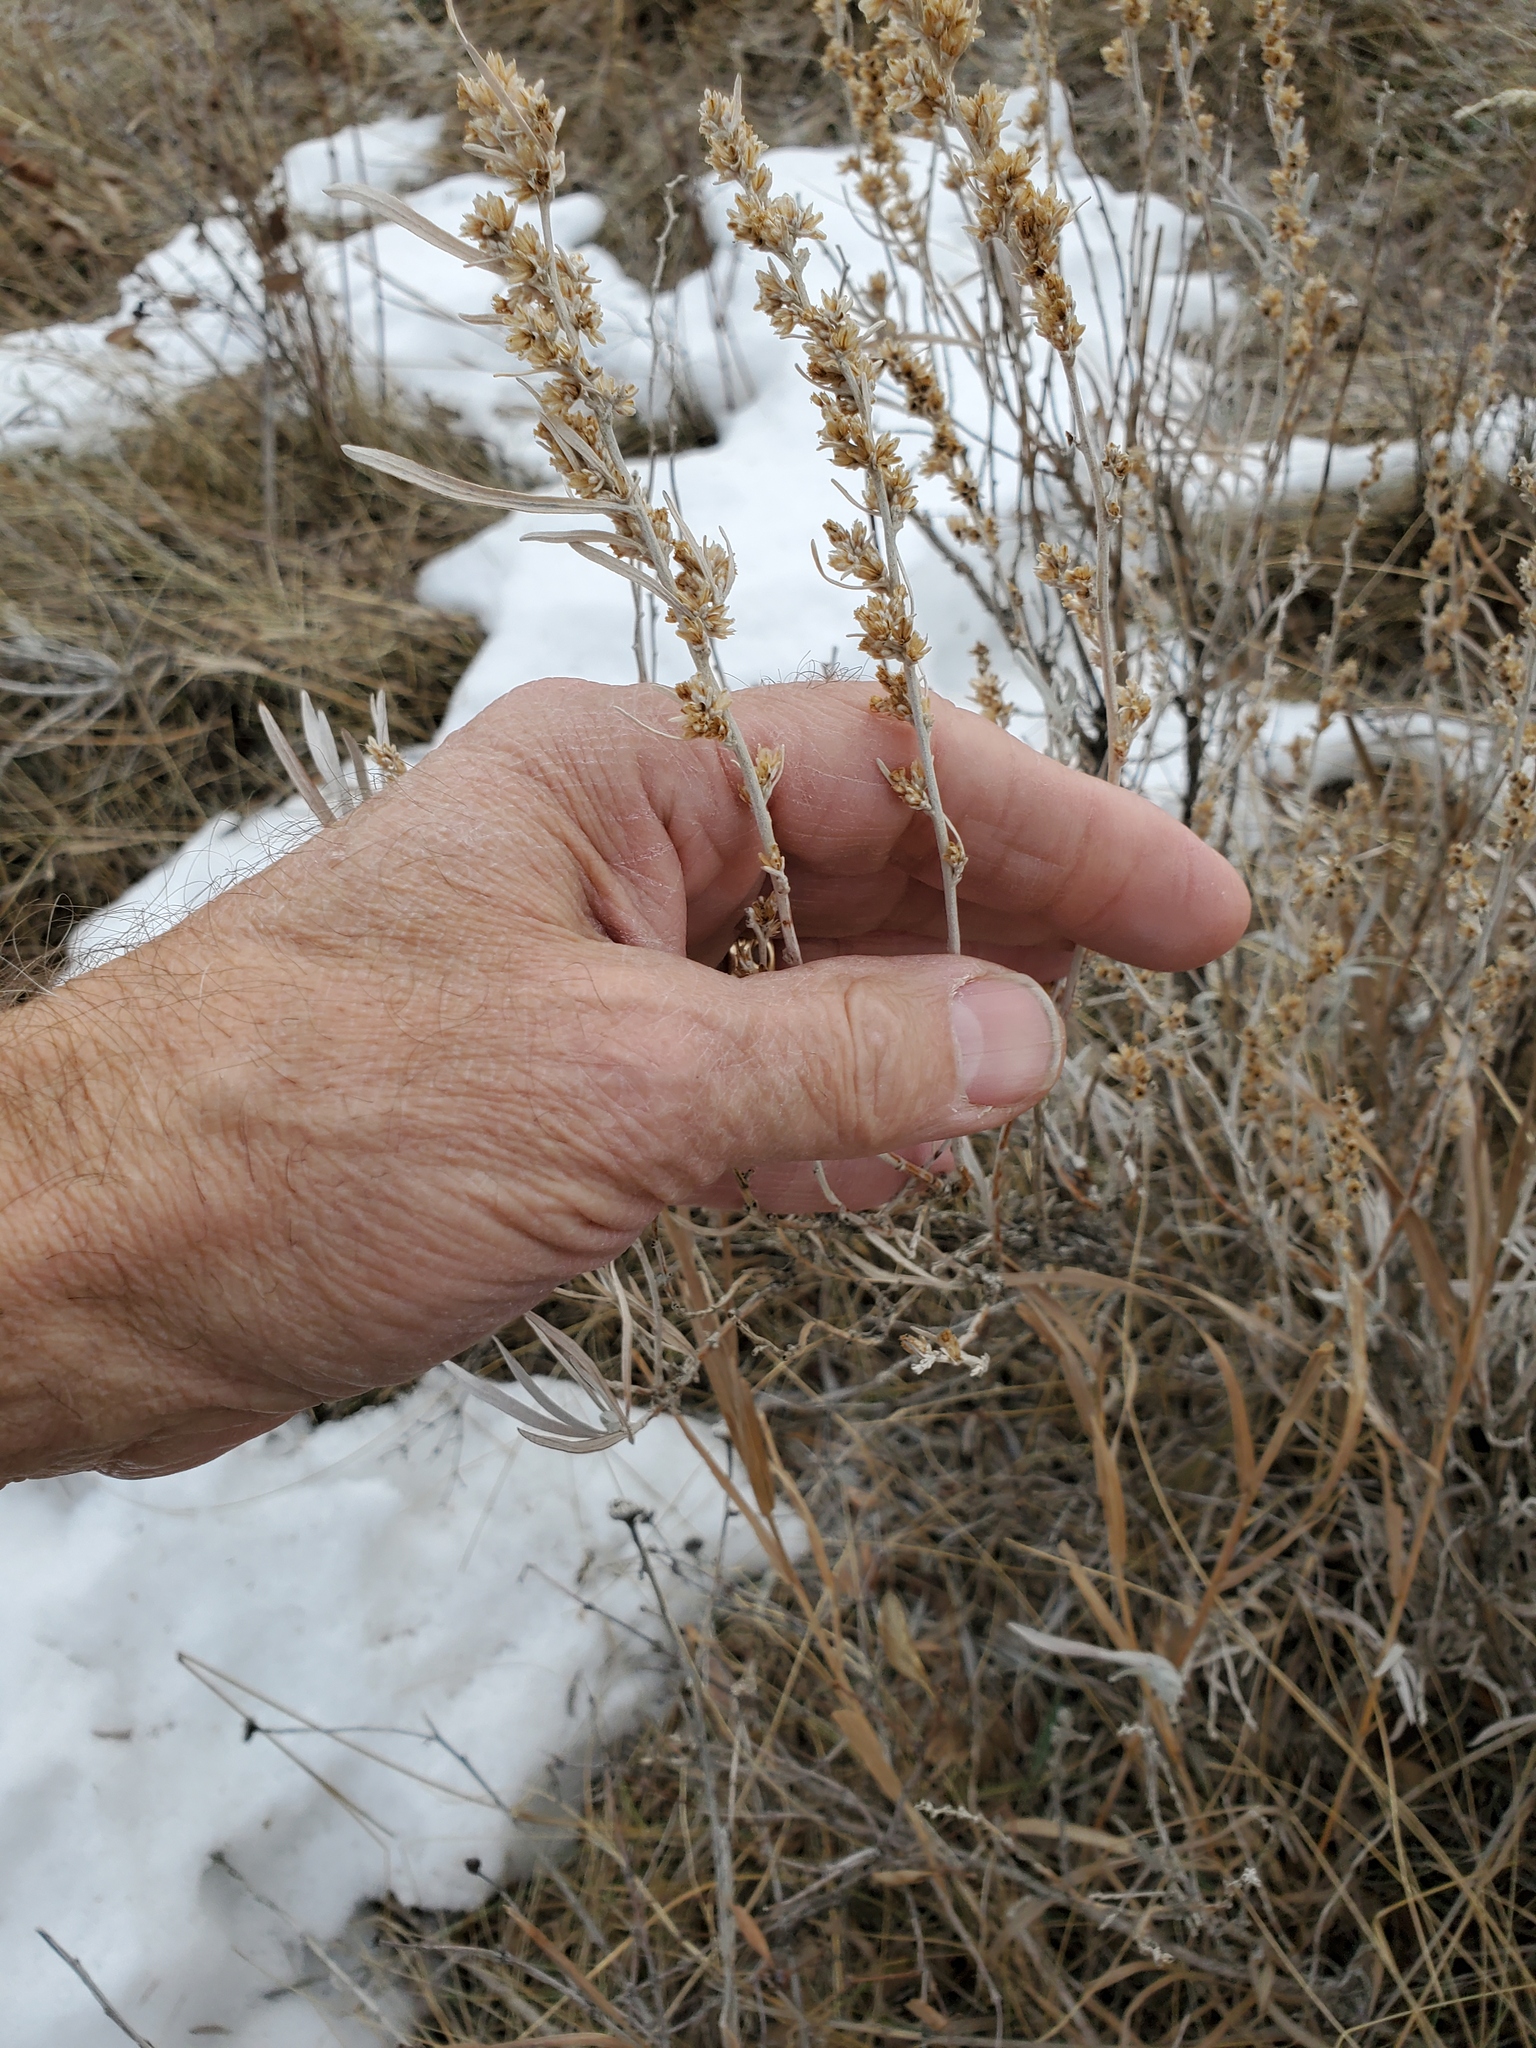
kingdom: Plantae
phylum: Tracheophyta
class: Magnoliopsida
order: Asterales
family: Asteraceae
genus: Artemisia
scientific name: Artemisia cana
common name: Silver sagebrush
